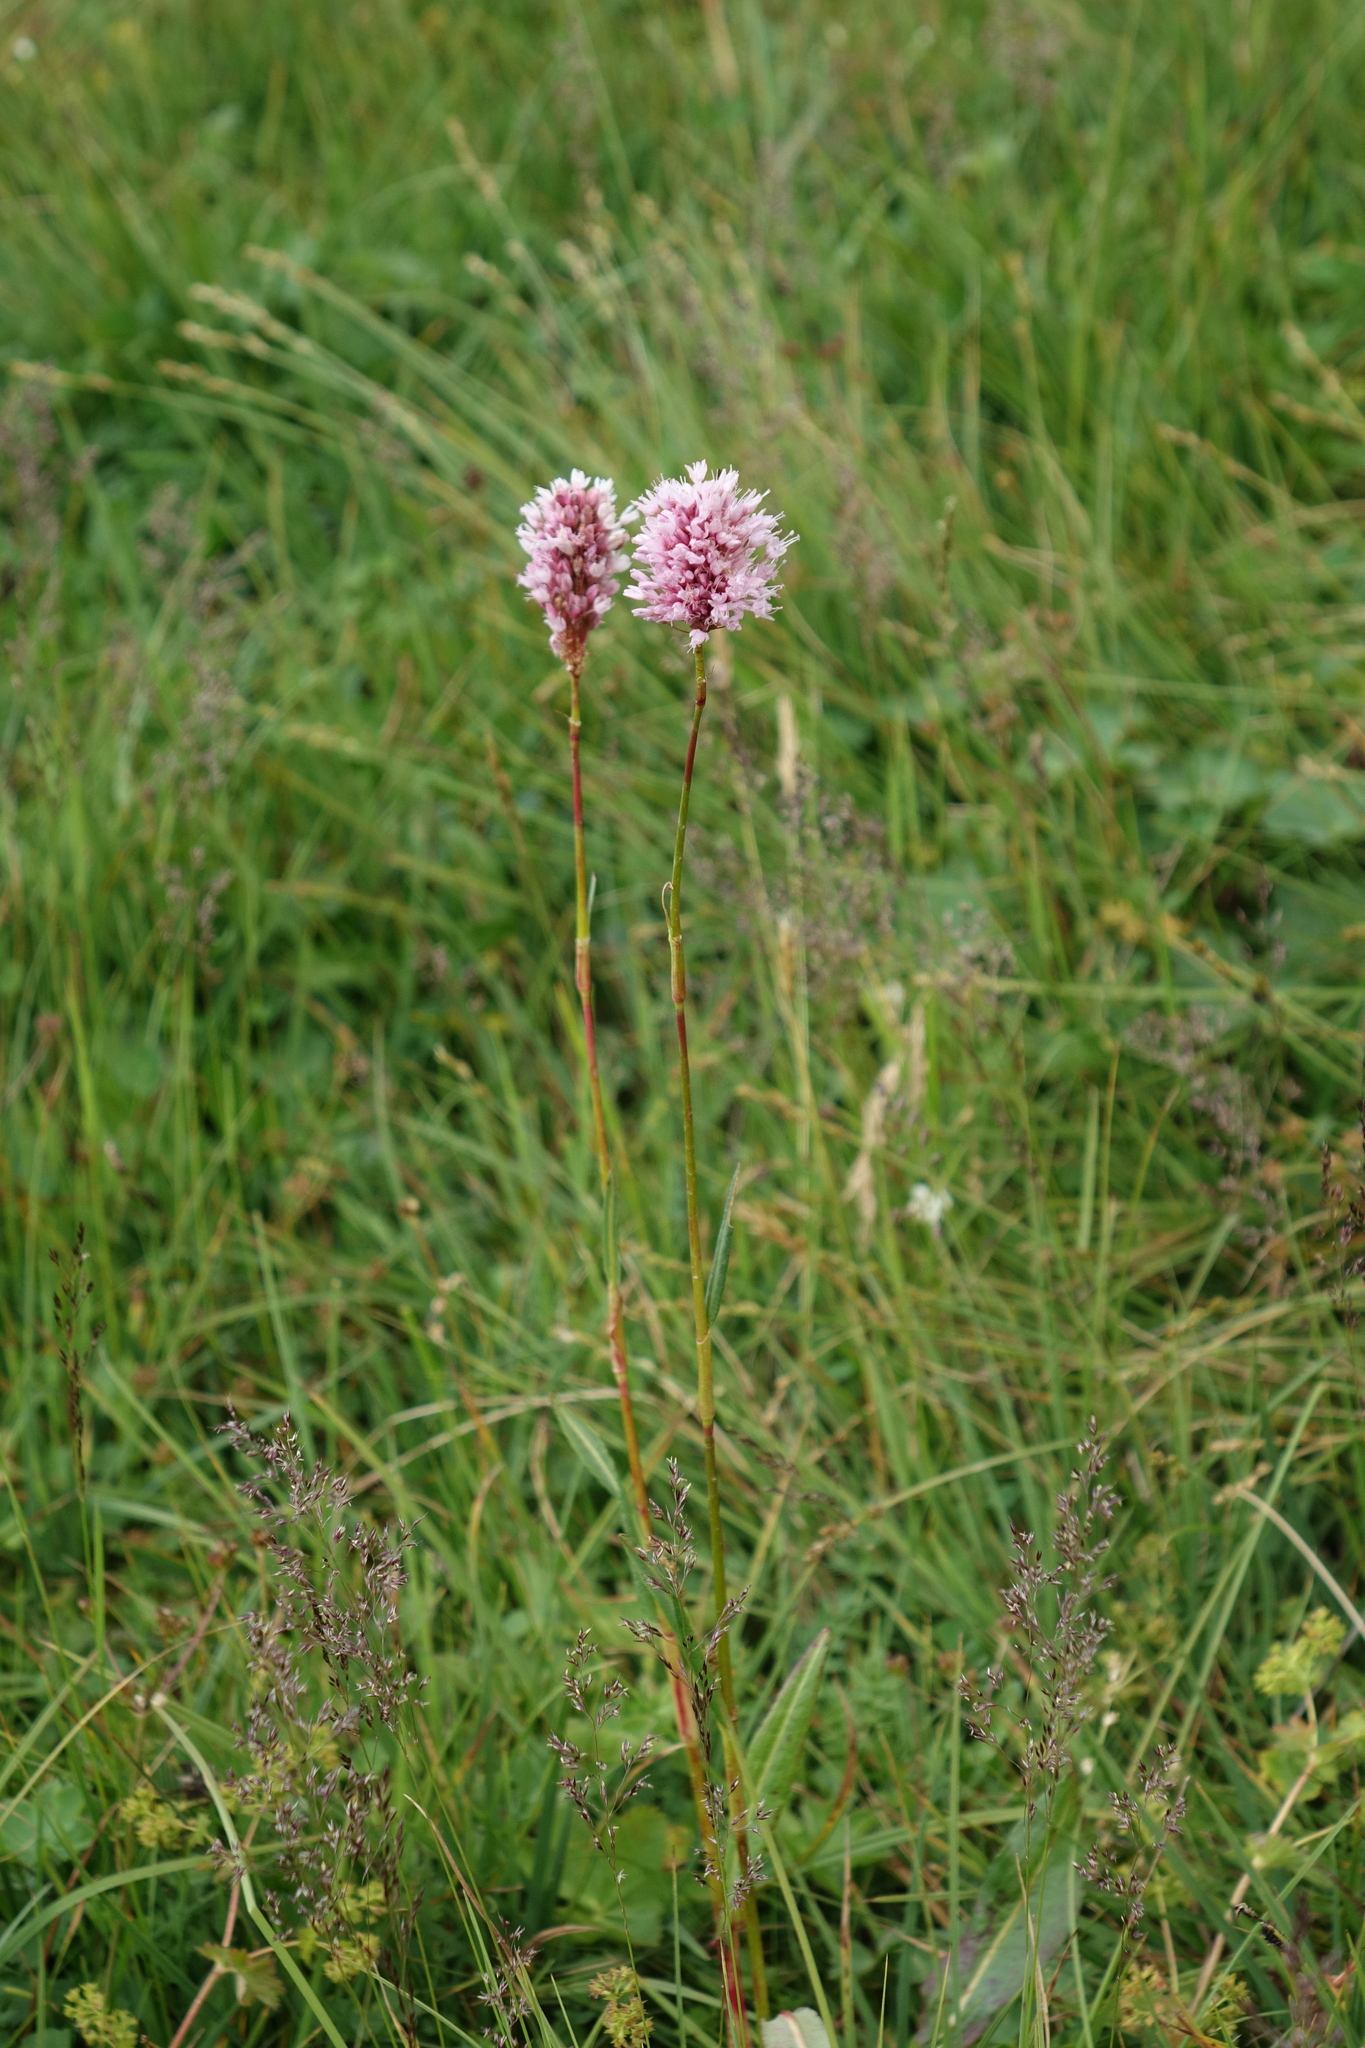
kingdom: Plantae
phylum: Tracheophyta
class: Magnoliopsida
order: Caryophyllales
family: Polygonaceae
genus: Bistorta
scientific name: Bistorta carnea
